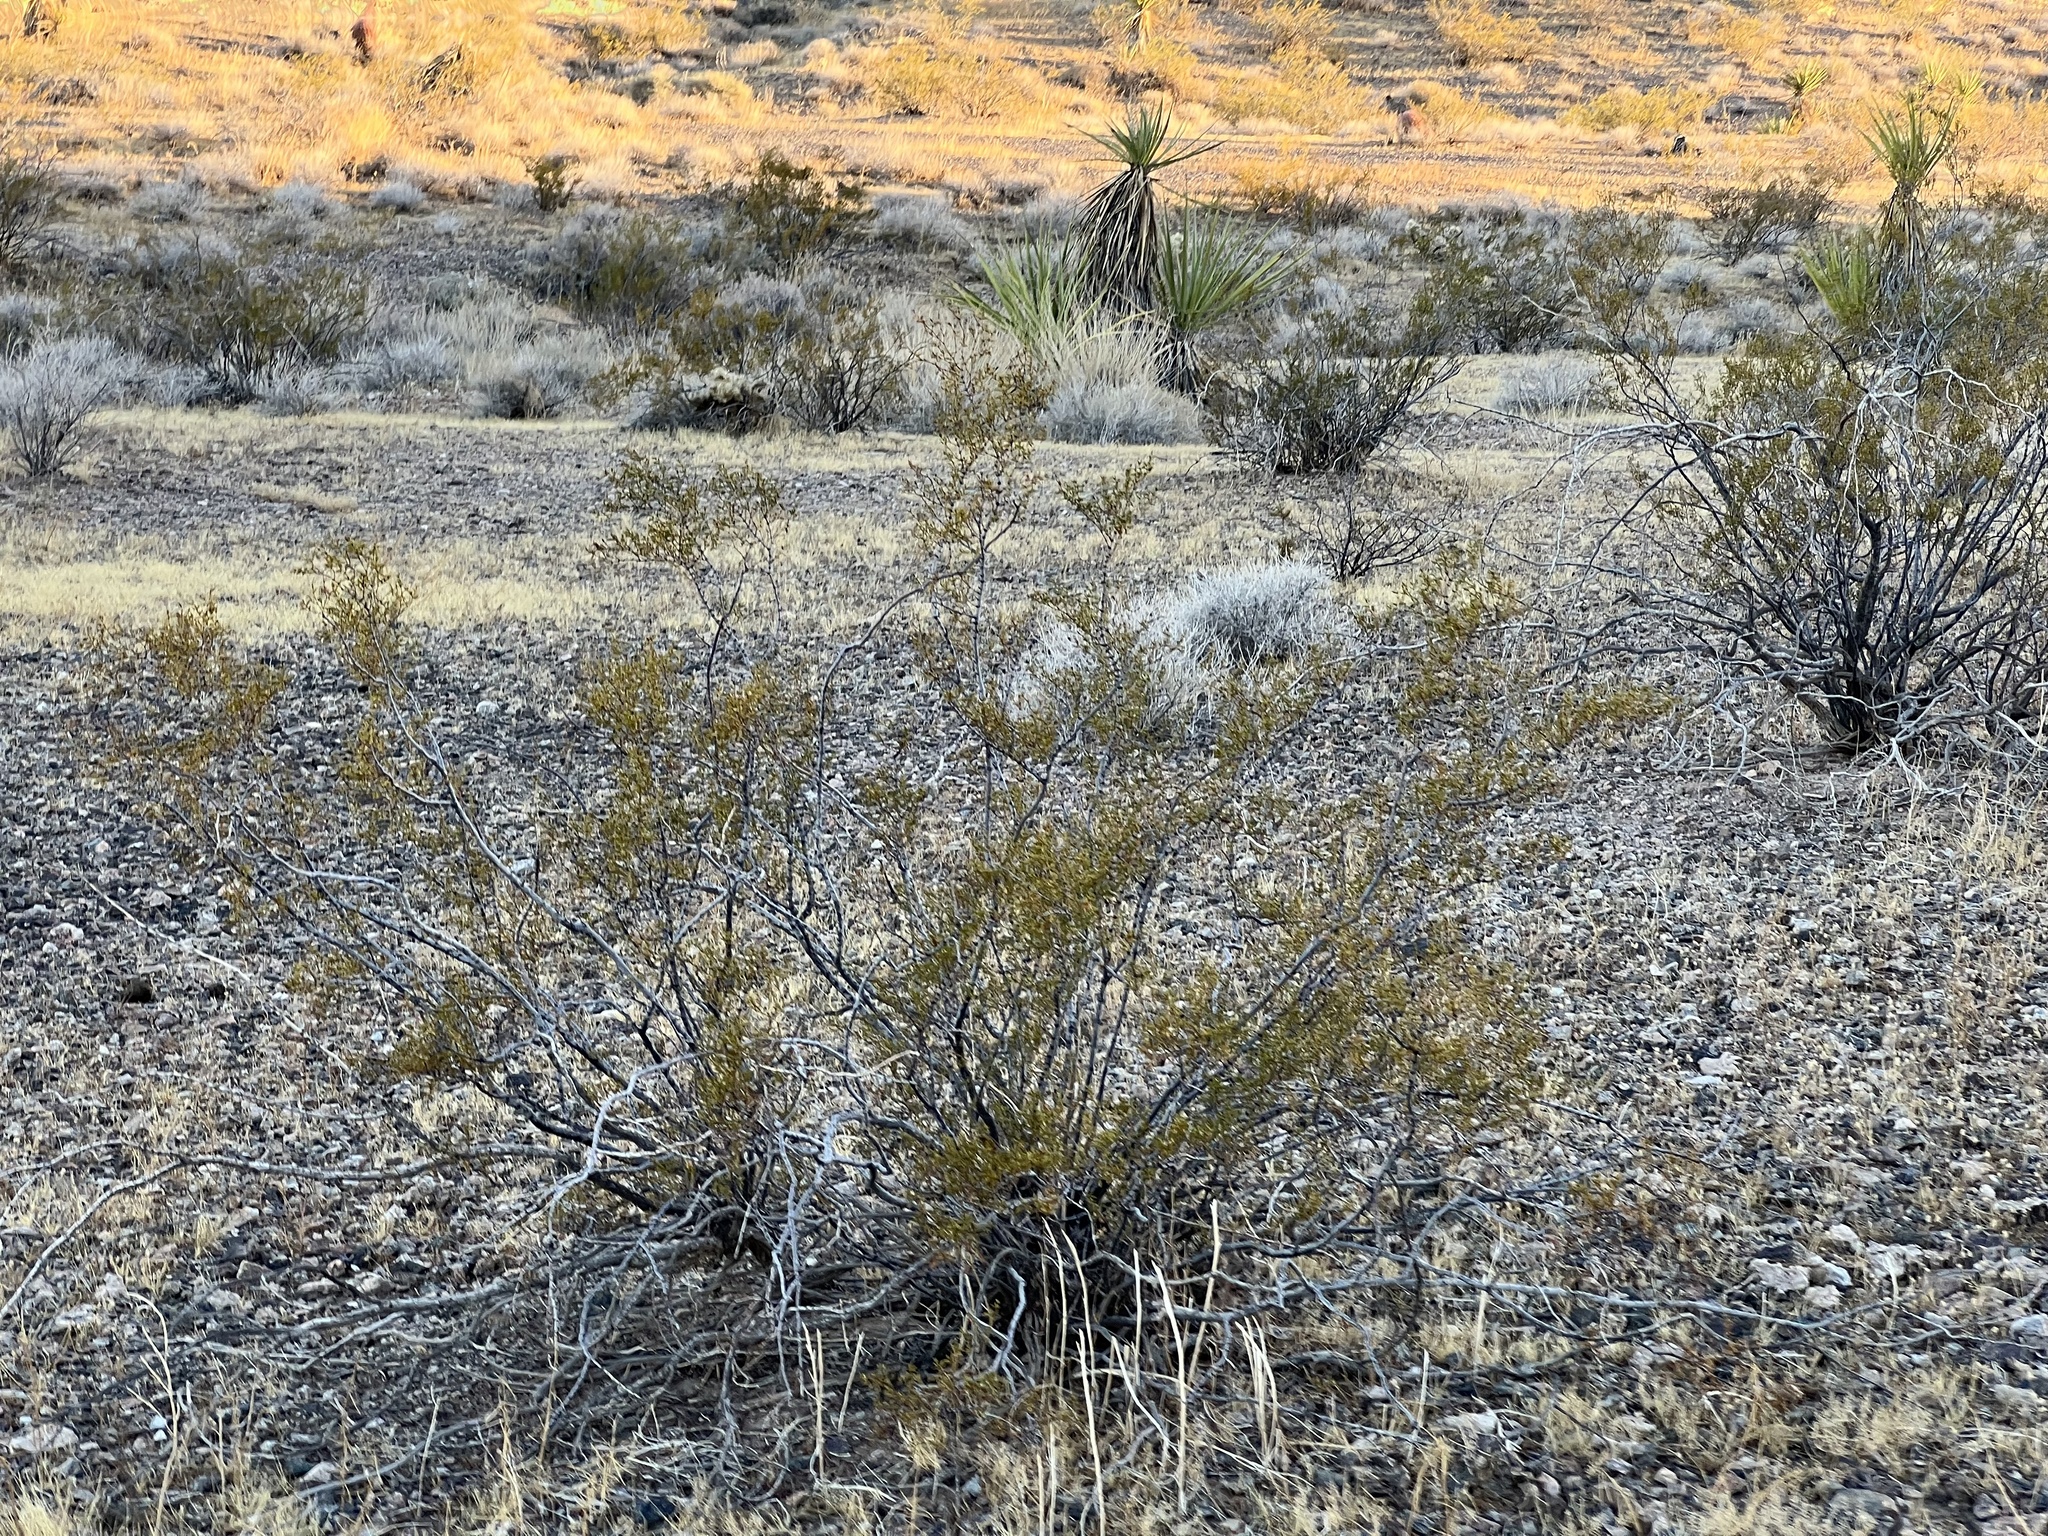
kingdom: Plantae
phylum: Tracheophyta
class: Magnoliopsida
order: Zygophyllales
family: Zygophyllaceae
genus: Larrea
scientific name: Larrea tridentata
